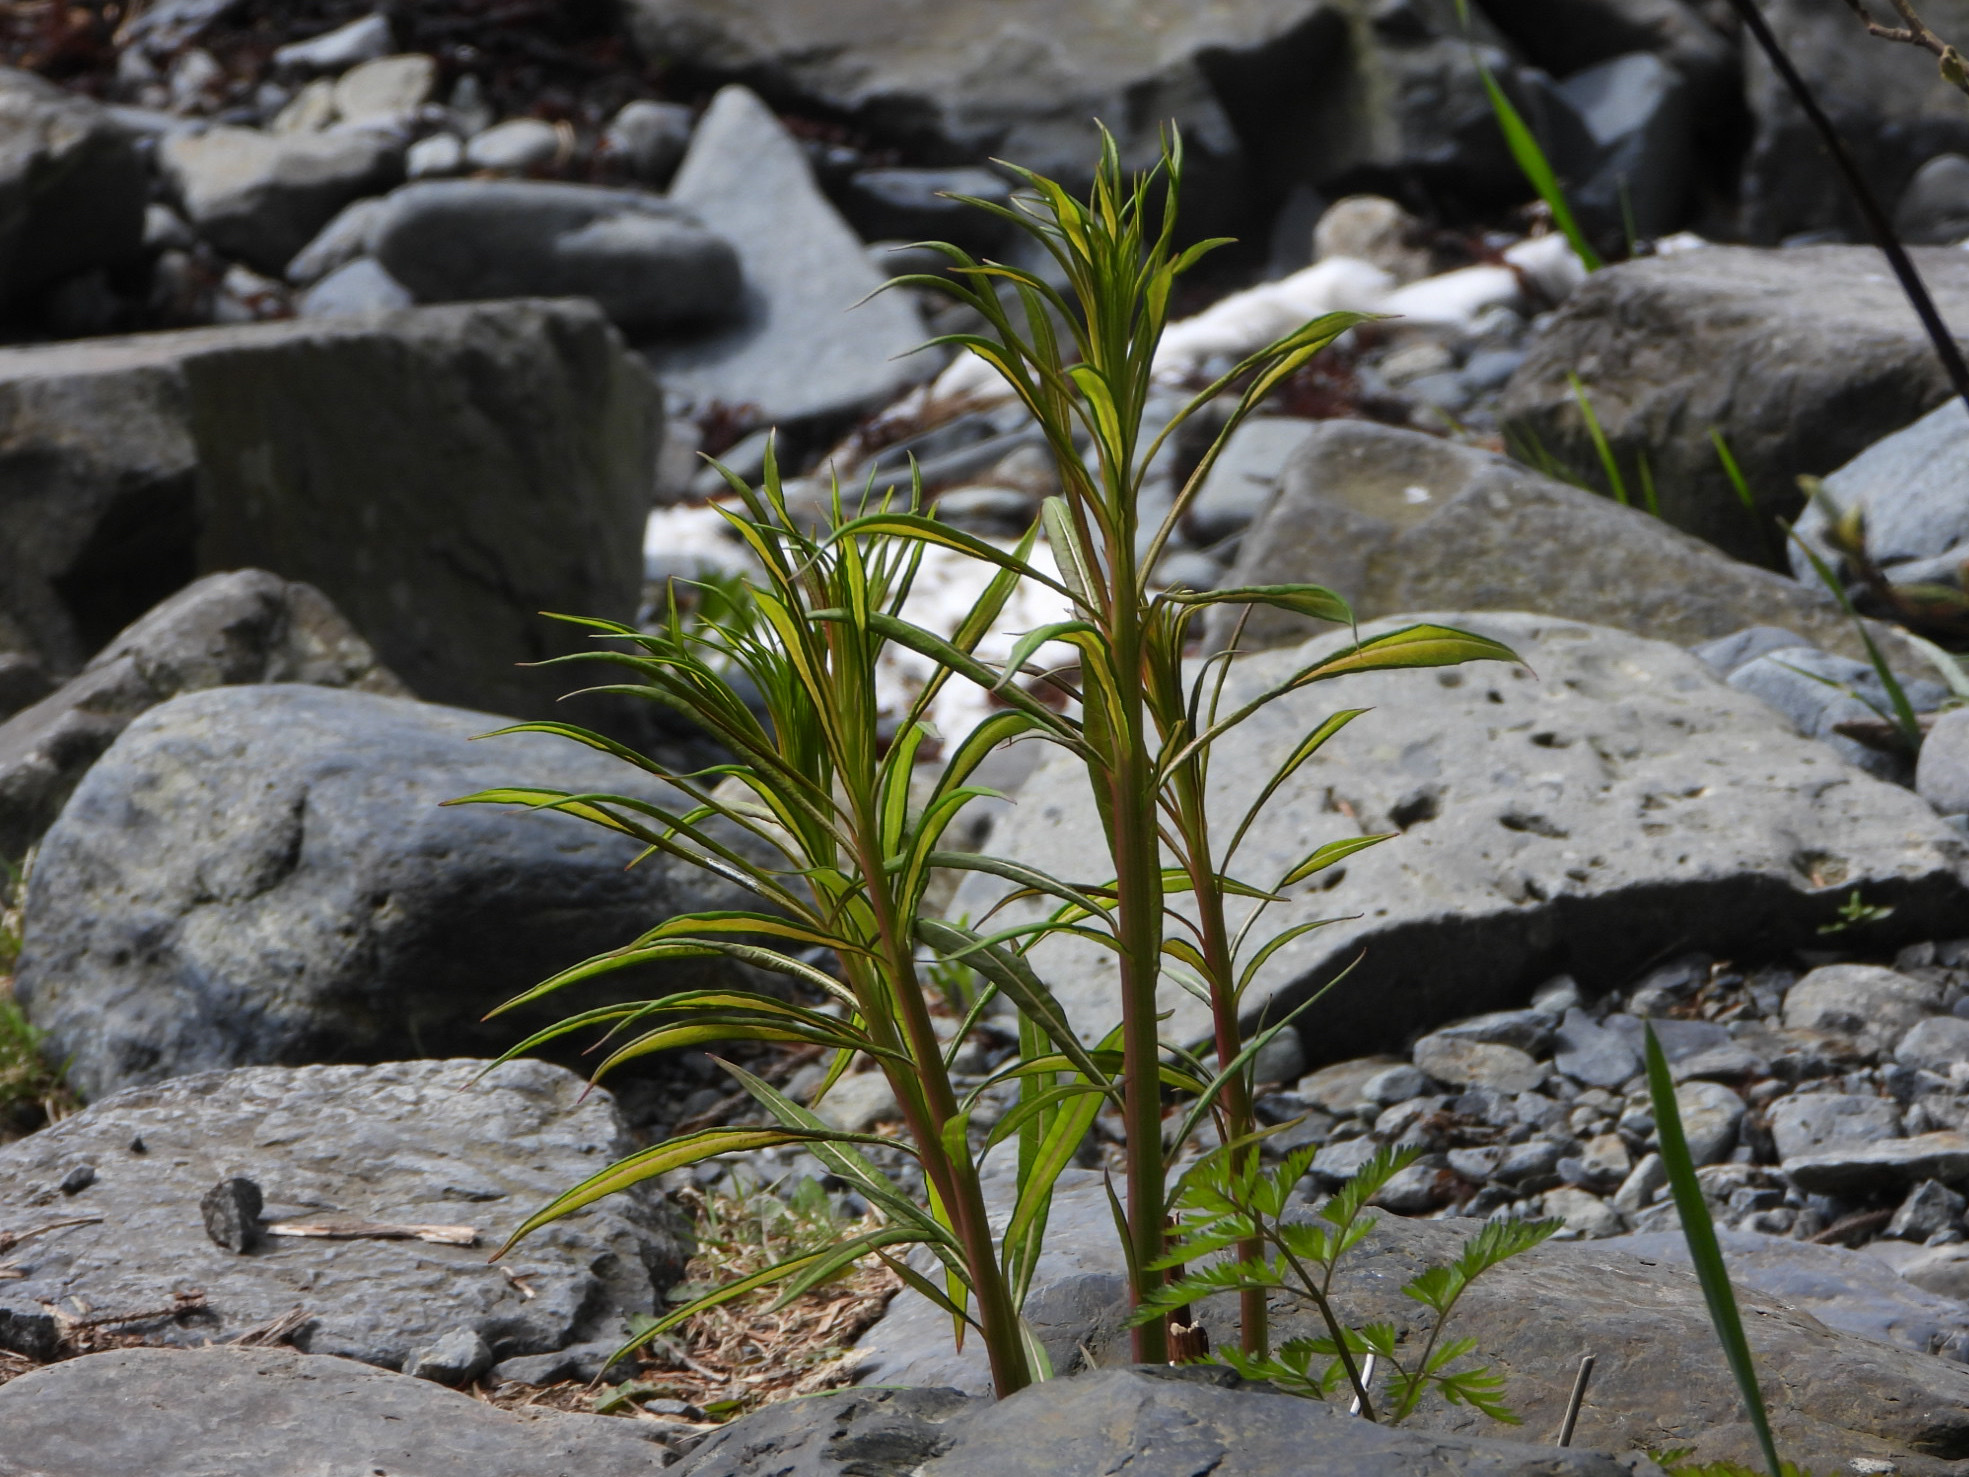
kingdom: Plantae
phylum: Tracheophyta
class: Magnoliopsida
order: Myrtales
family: Onagraceae
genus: Chamaenerion
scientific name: Chamaenerion angustifolium
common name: Fireweed
